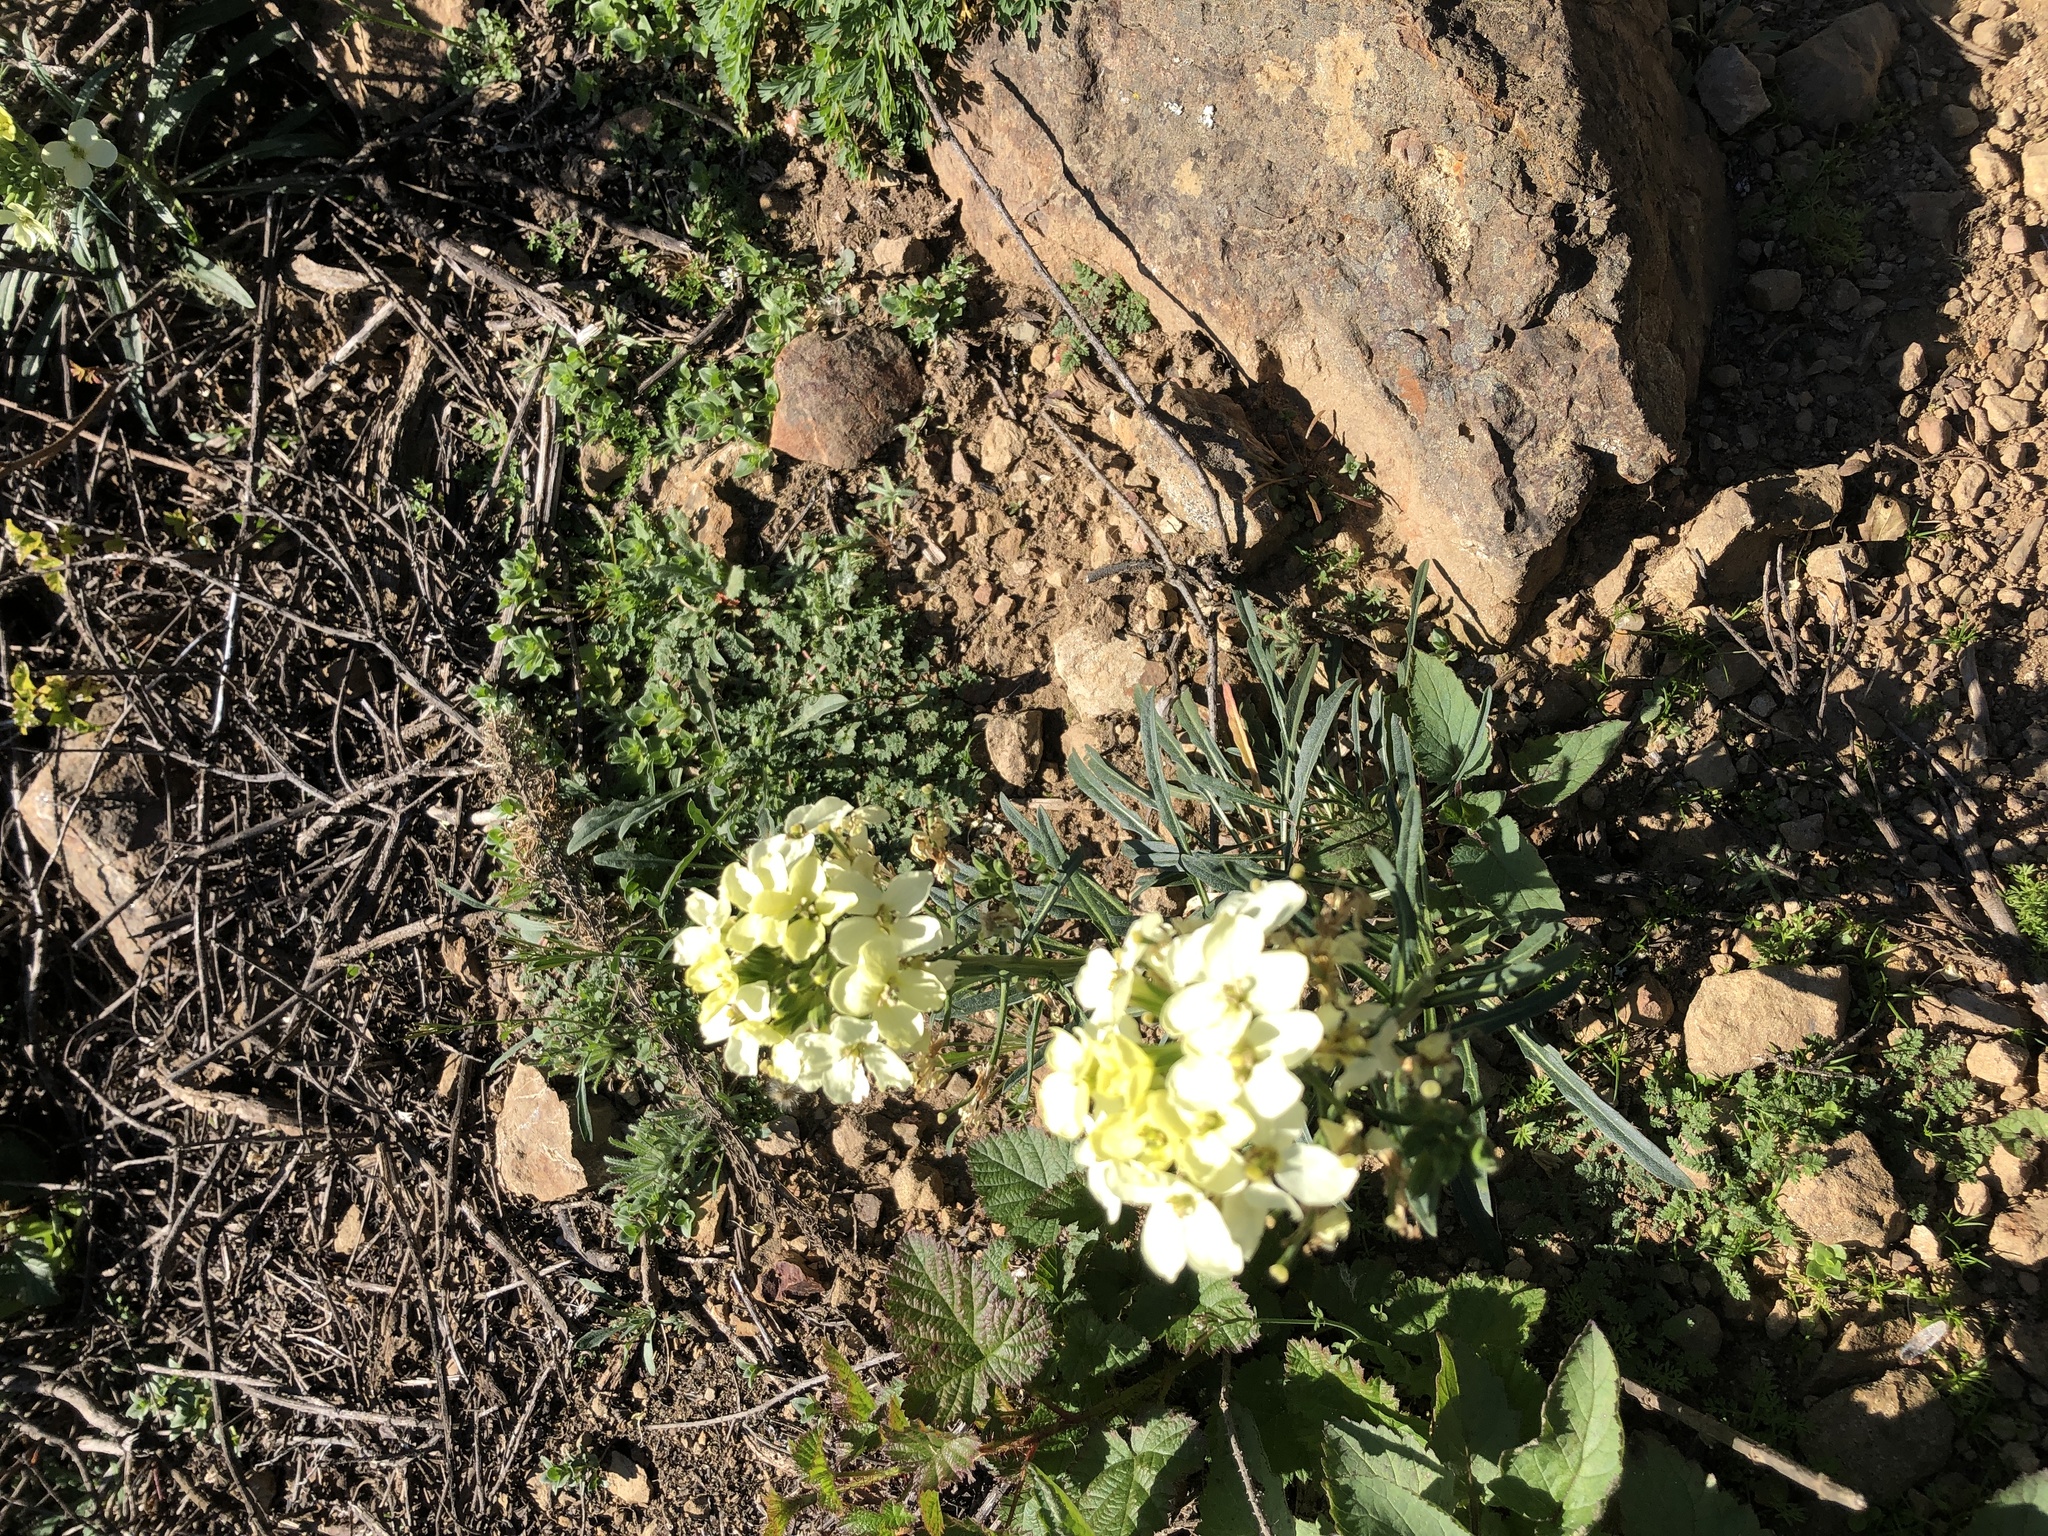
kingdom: Plantae
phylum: Tracheophyta
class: Magnoliopsida
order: Brassicales
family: Brassicaceae
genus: Erysimum
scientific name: Erysimum franciscanum
